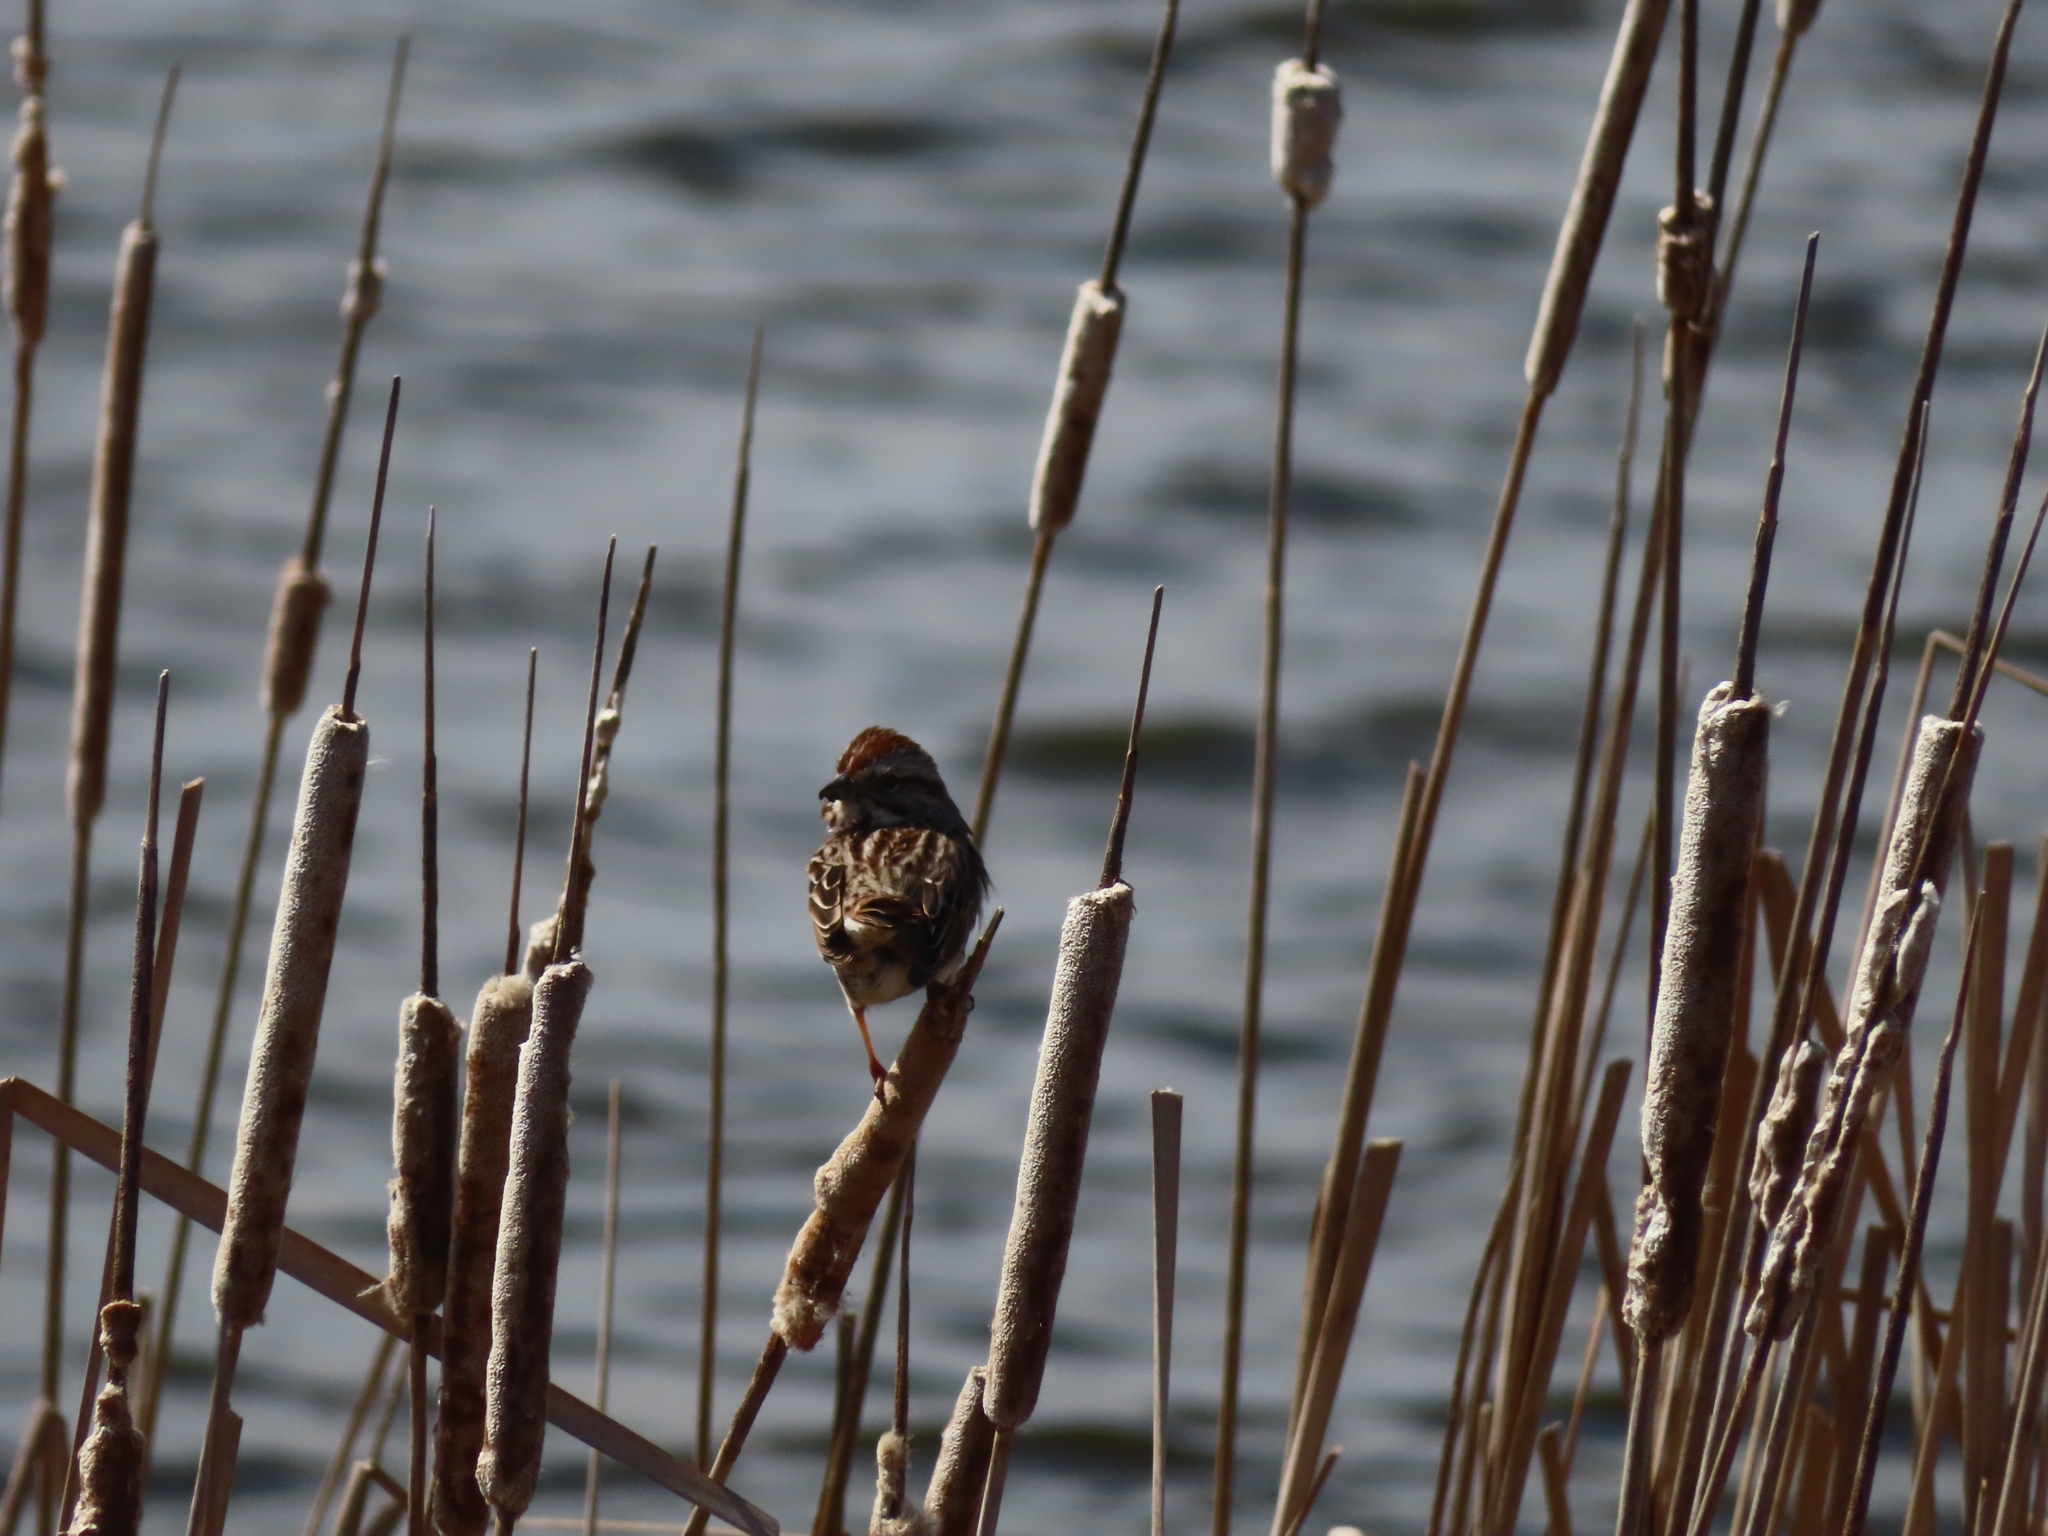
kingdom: Animalia
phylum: Chordata
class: Aves
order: Passeriformes
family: Passerellidae
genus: Melospiza
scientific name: Melospiza melodia
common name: Song sparrow
